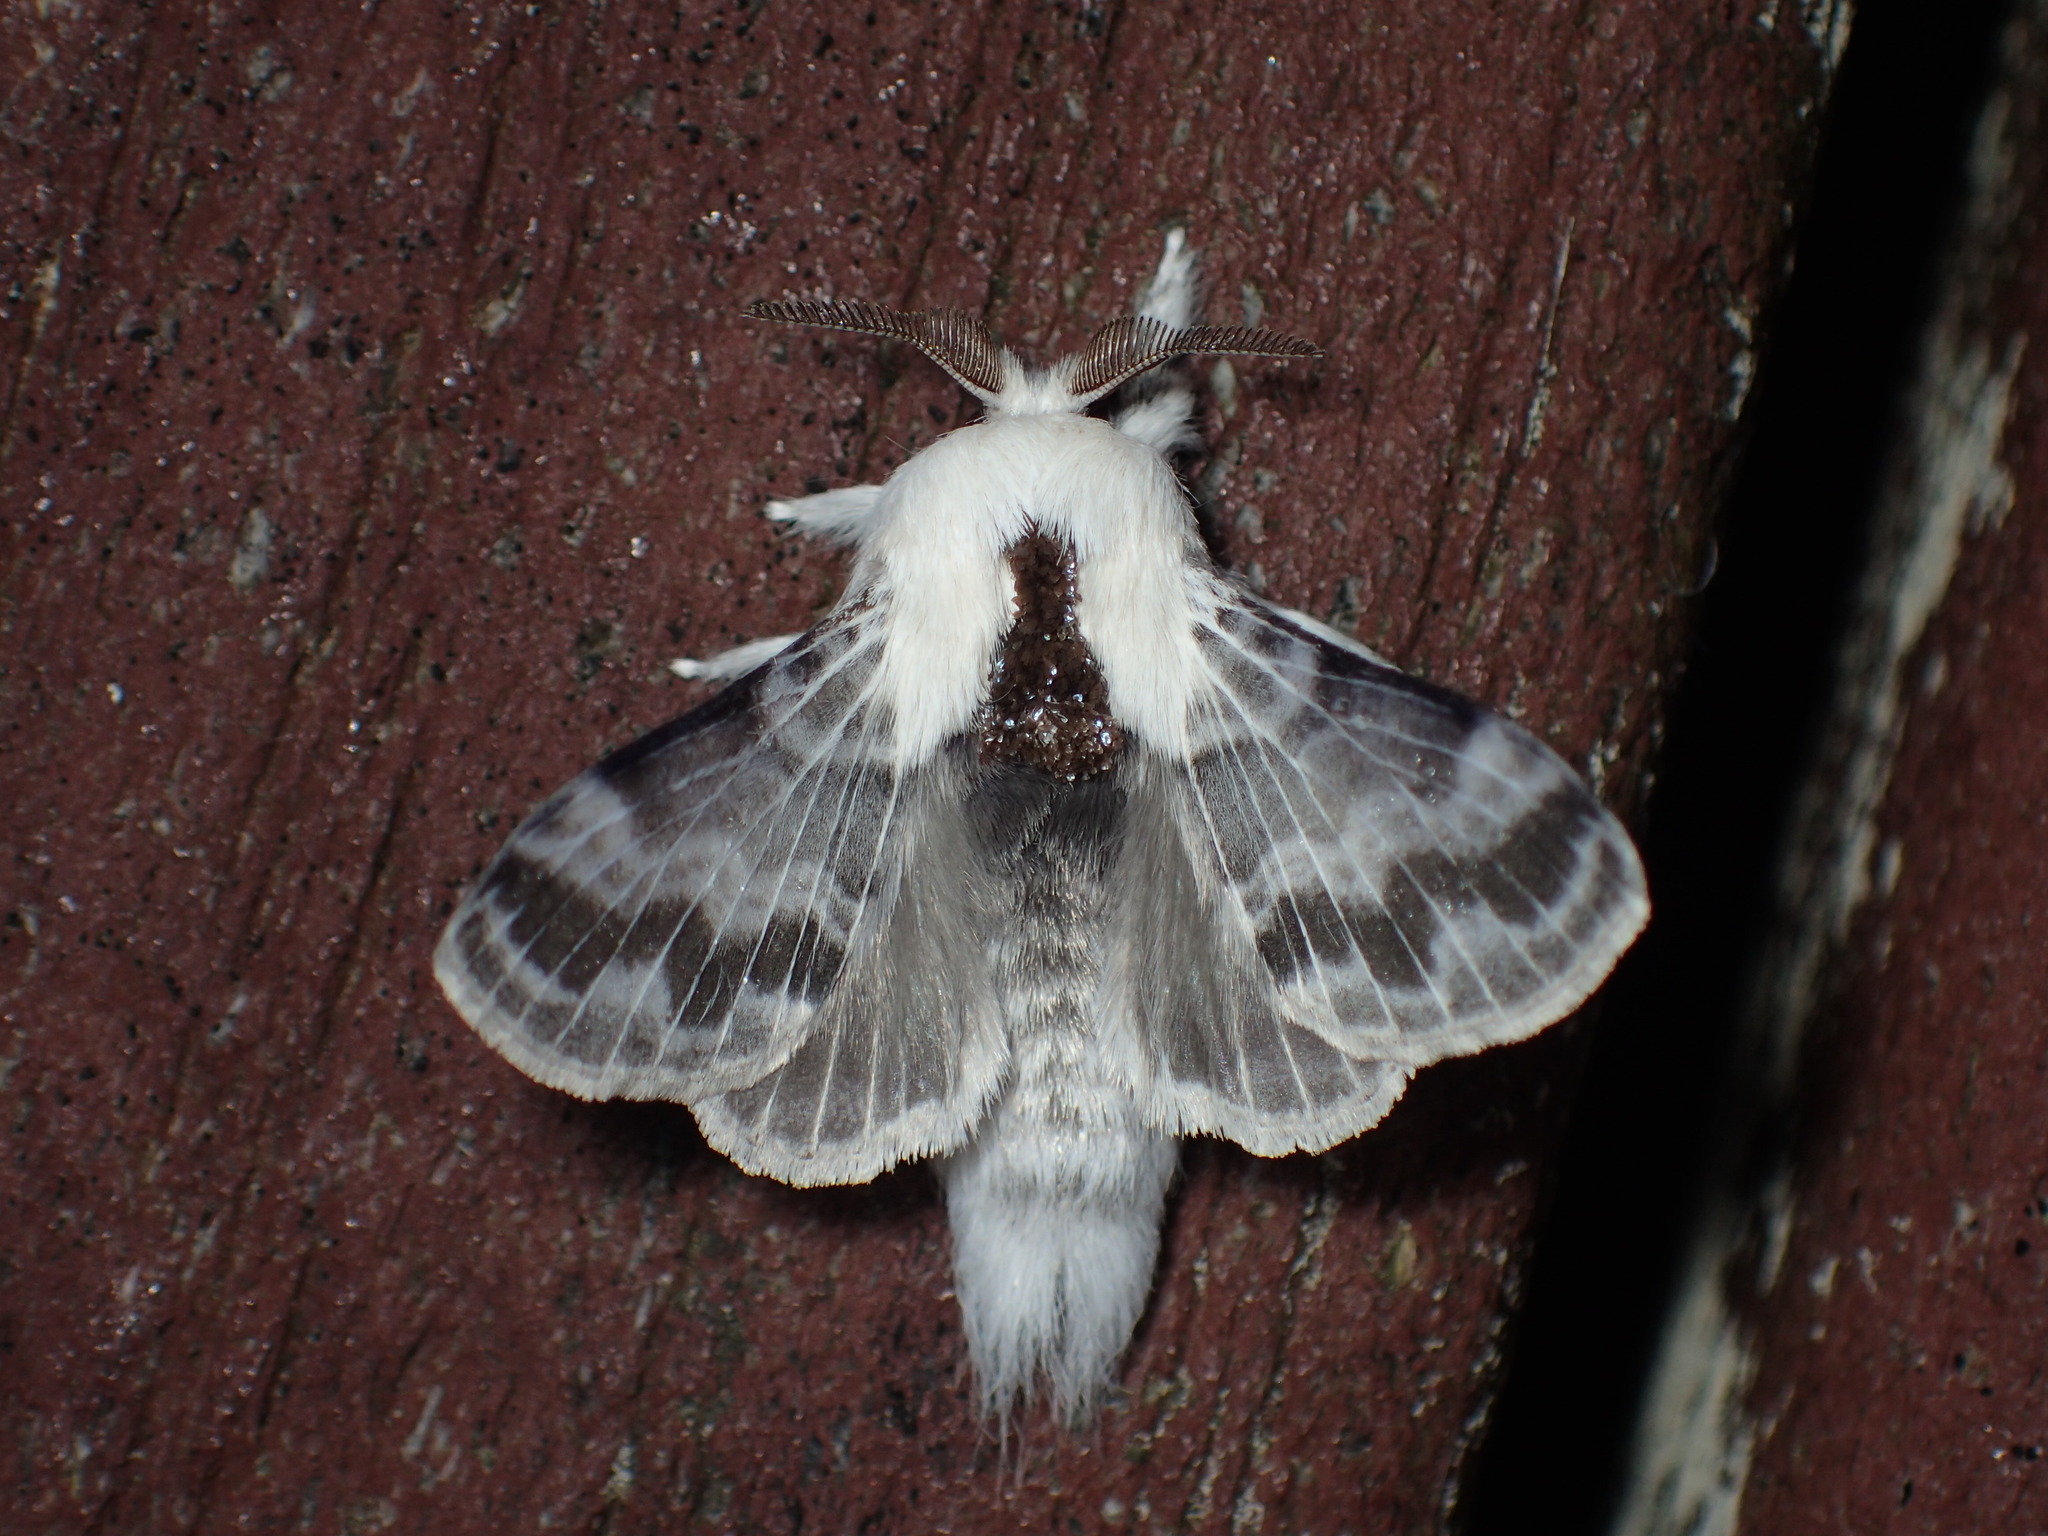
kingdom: Animalia
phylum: Arthropoda
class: Insecta
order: Lepidoptera
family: Lasiocampidae
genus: Tolype
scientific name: Tolype notialis
